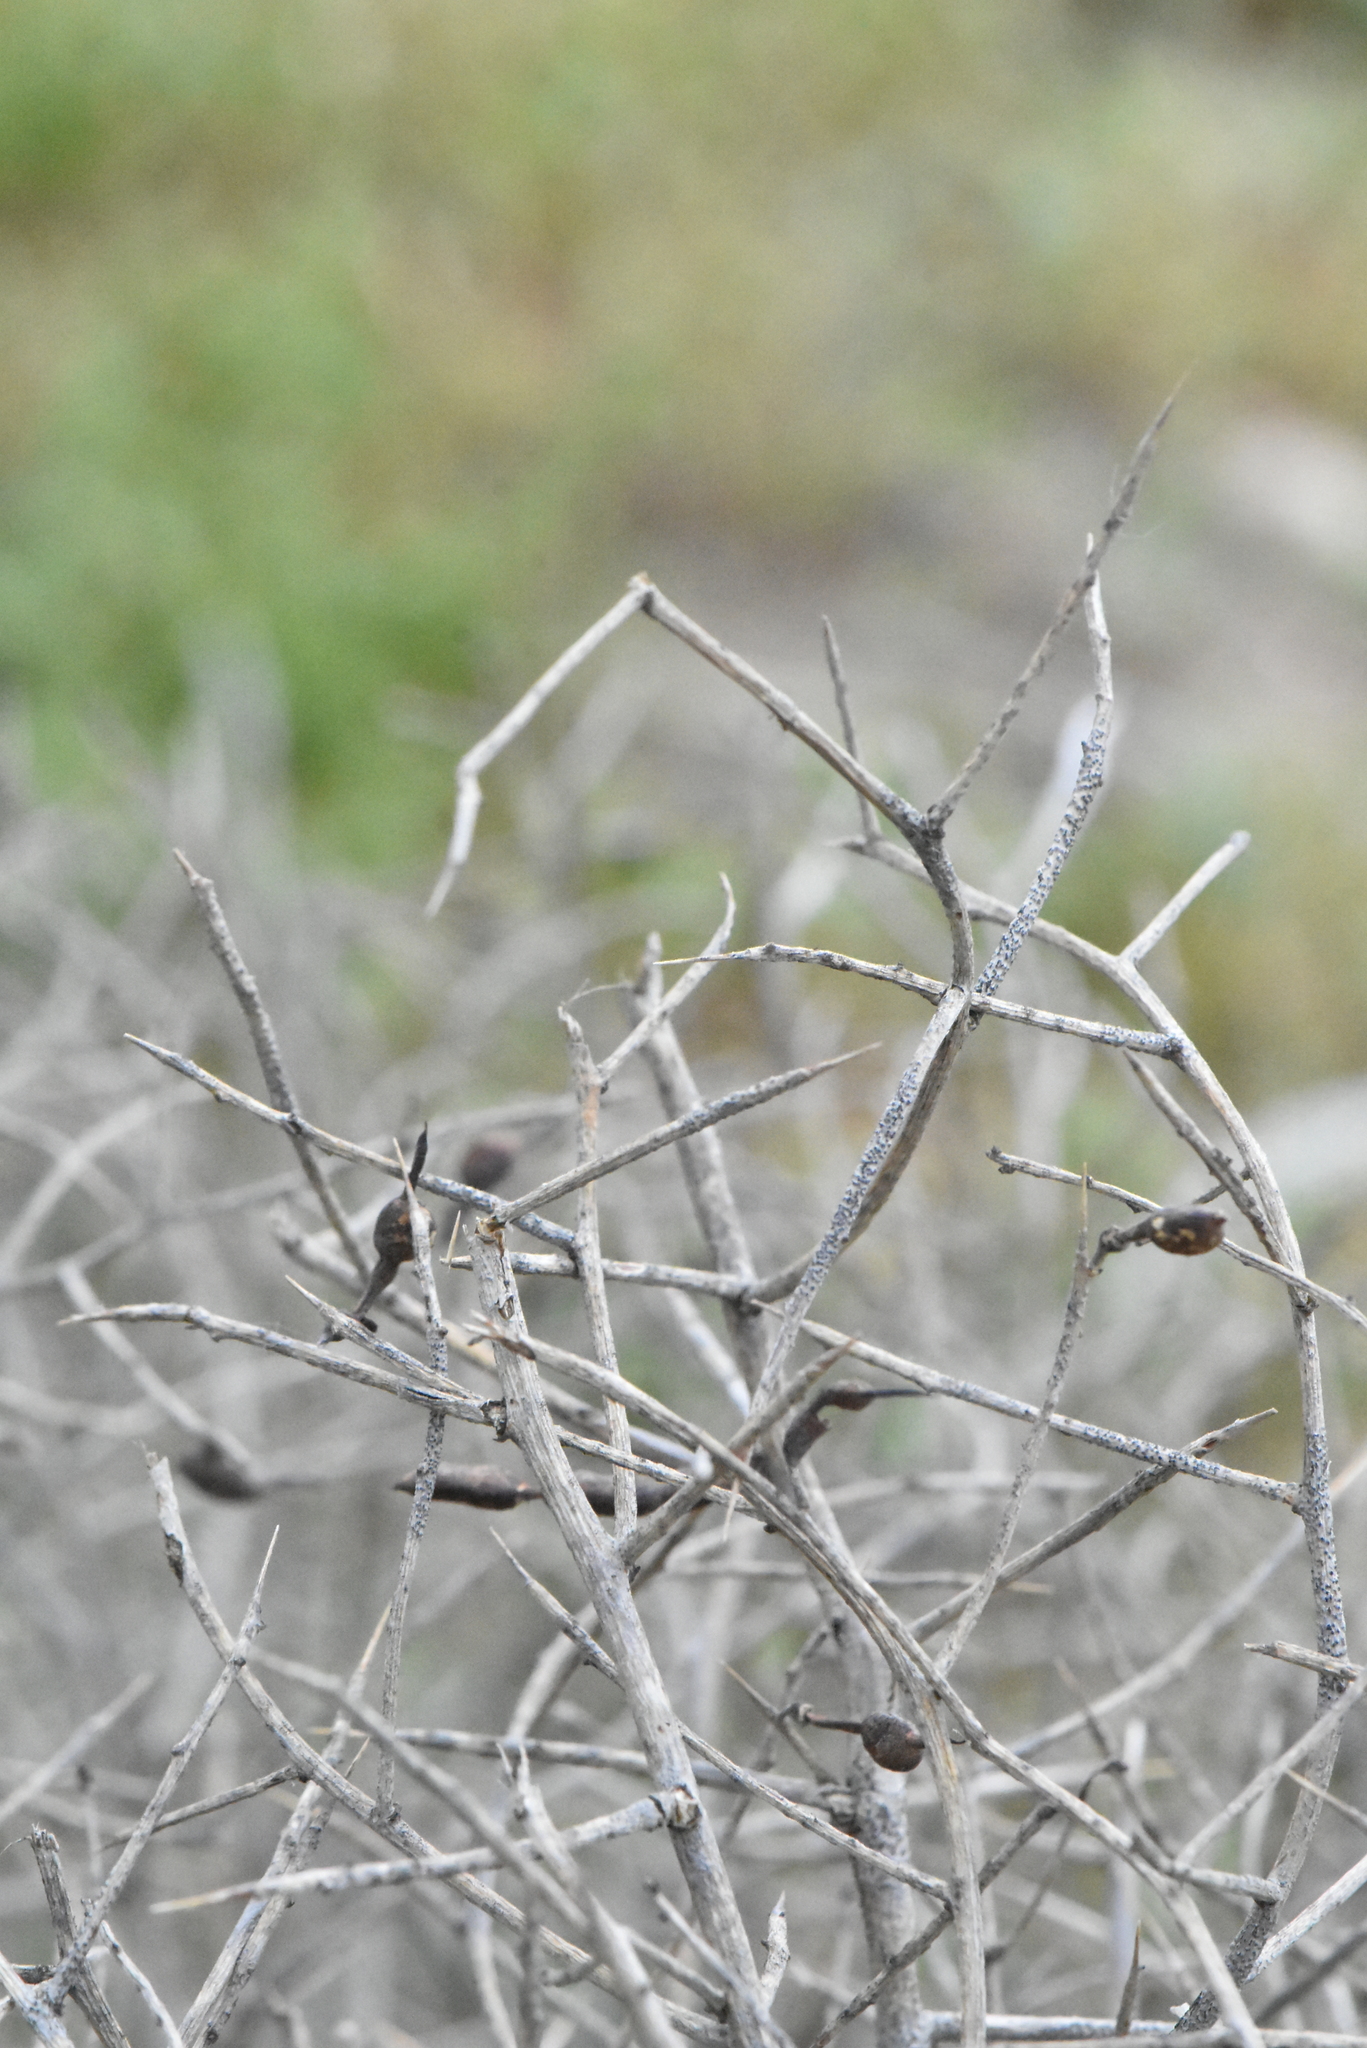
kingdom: Plantae
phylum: Tracheophyta
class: Magnoliopsida
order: Fabales
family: Fabaceae
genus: Alhagi
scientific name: Alhagi pseudalhagi
